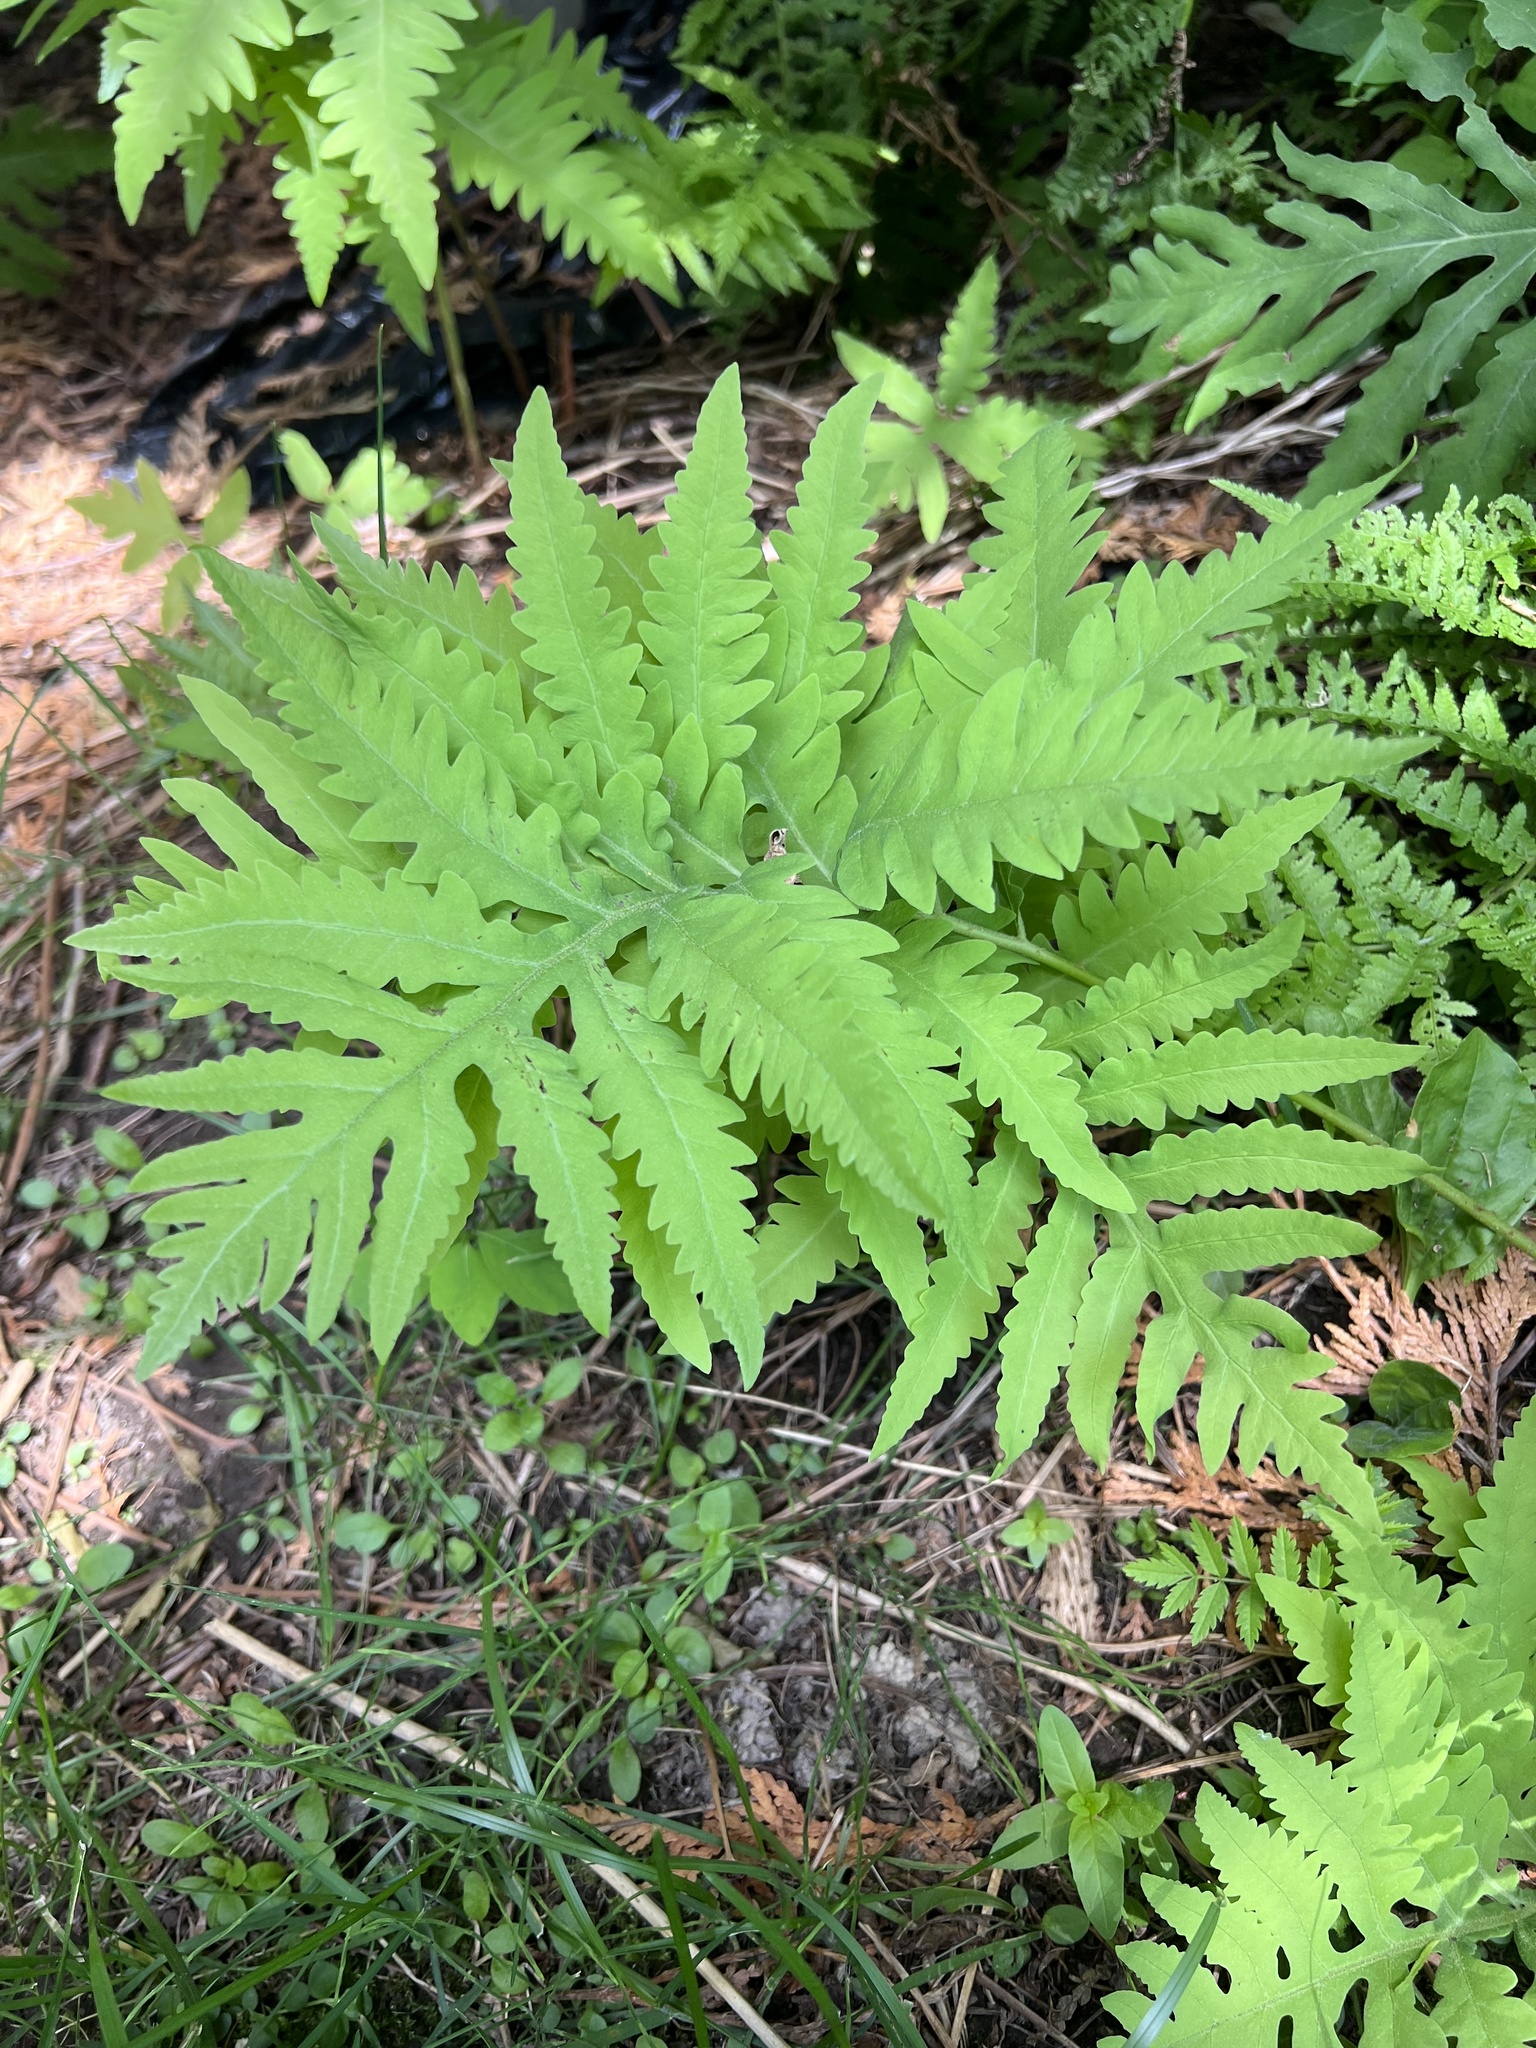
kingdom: Plantae
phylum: Tracheophyta
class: Polypodiopsida
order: Polypodiales
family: Onocleaceae
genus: Onoclea
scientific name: Onoclea sensibilis
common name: Sensitive fern
